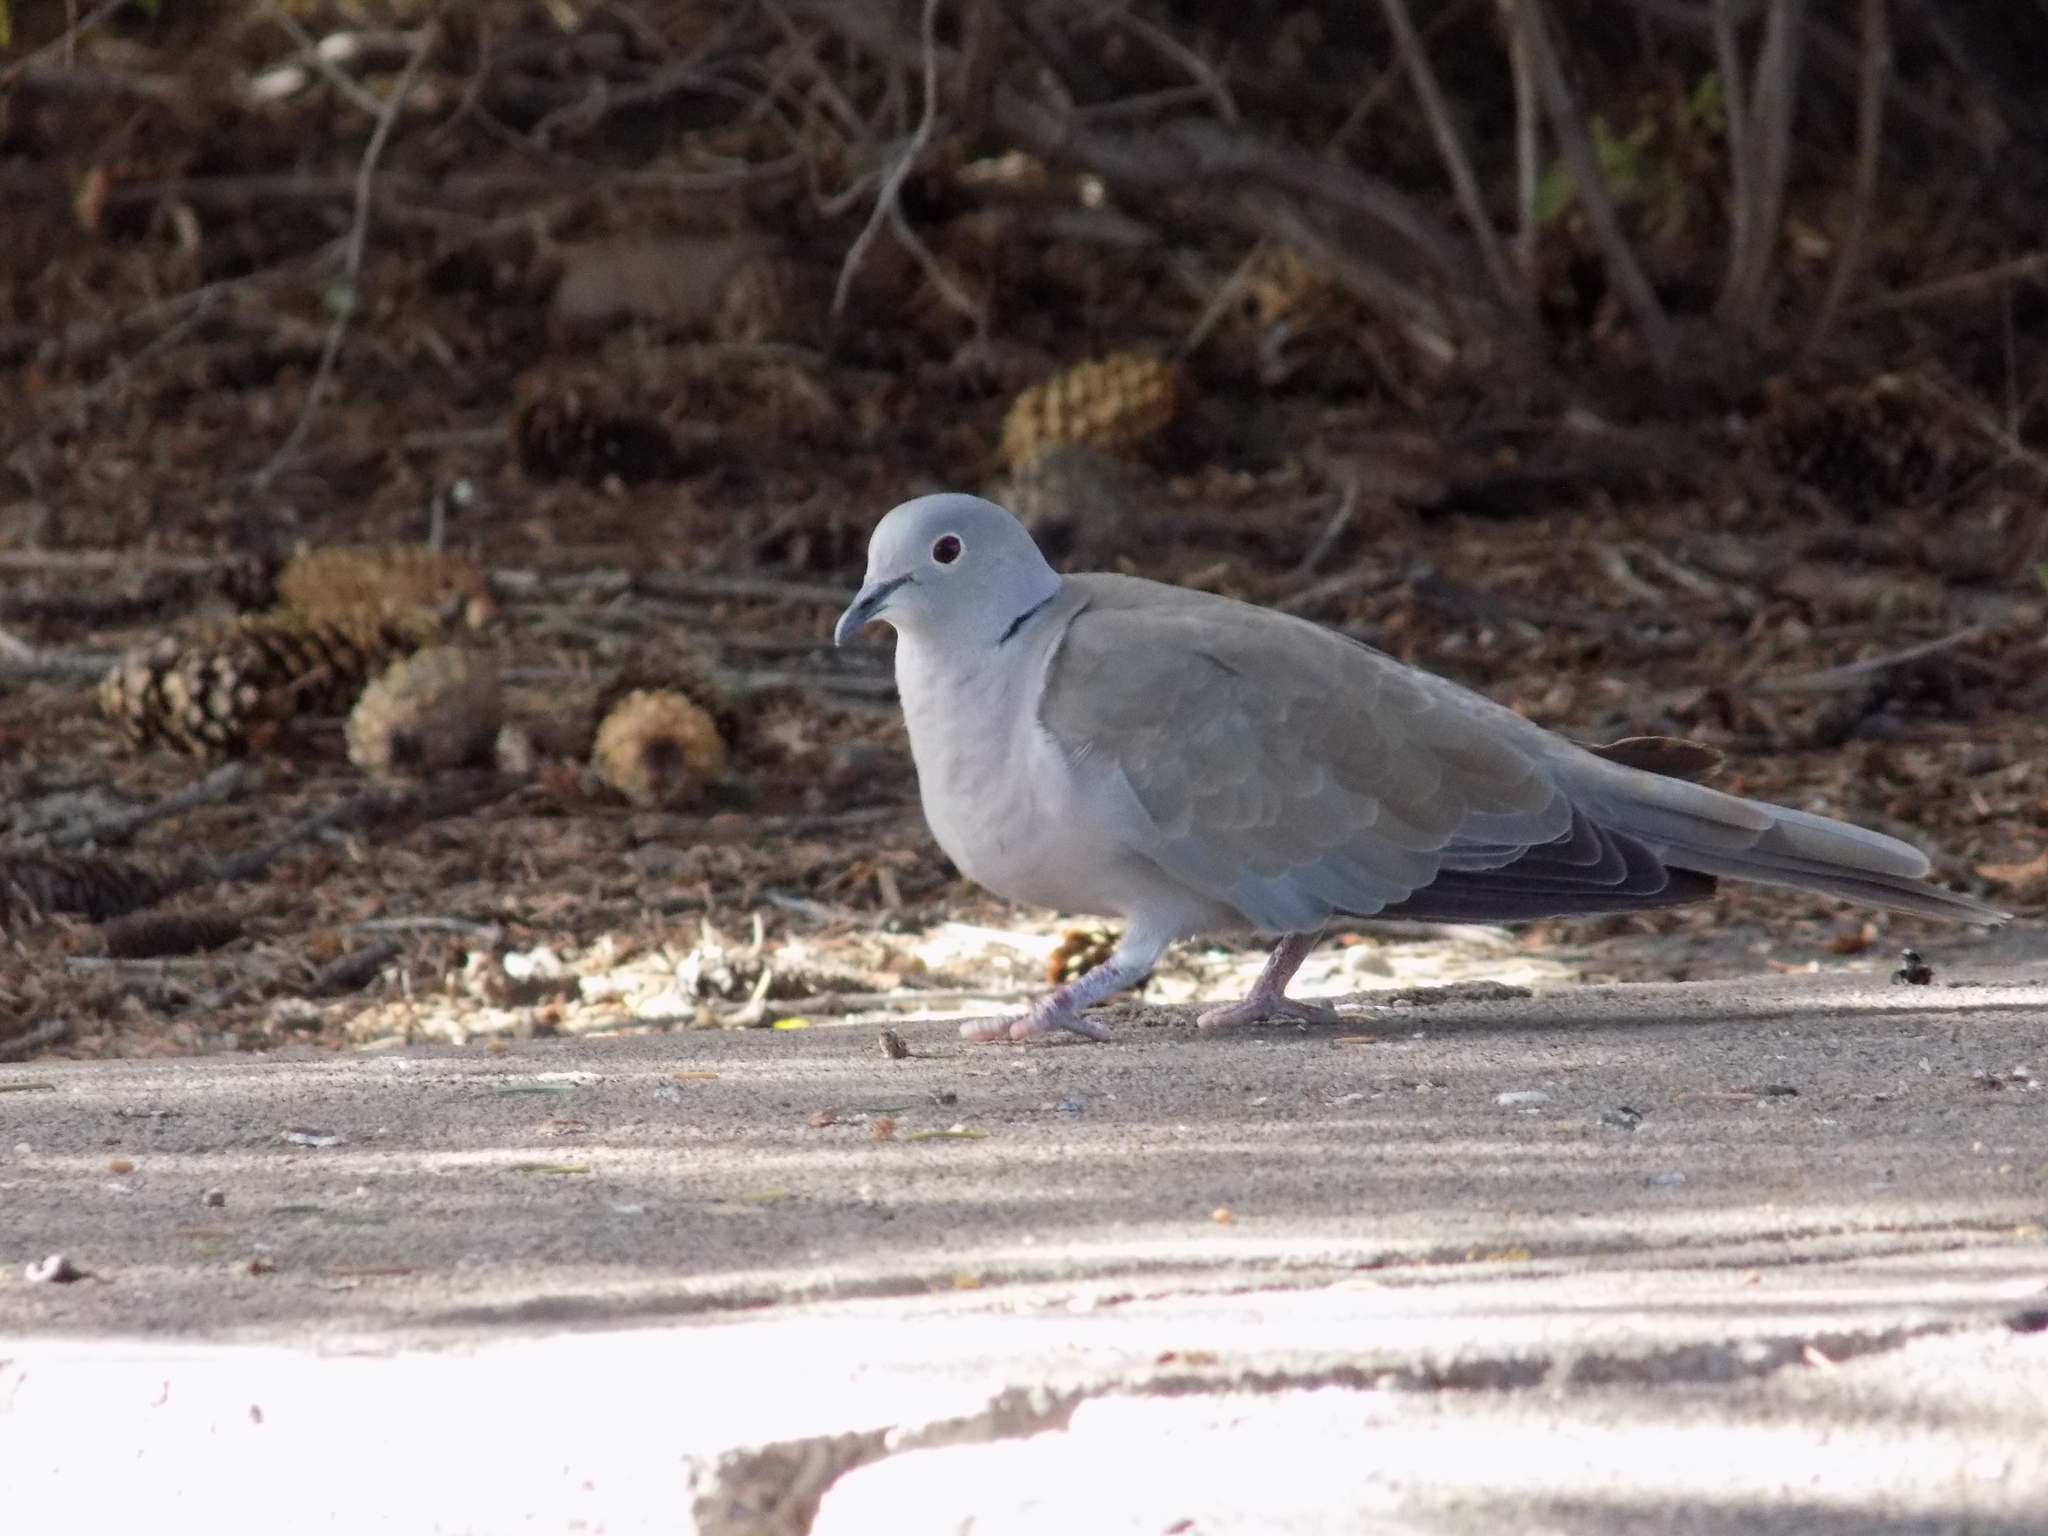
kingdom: Animalia
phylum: Chordata
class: Aves
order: Columbiformes
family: Columbidae
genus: Streptopelia
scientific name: Streptopelia decaocto
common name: Eurasian collared dove
